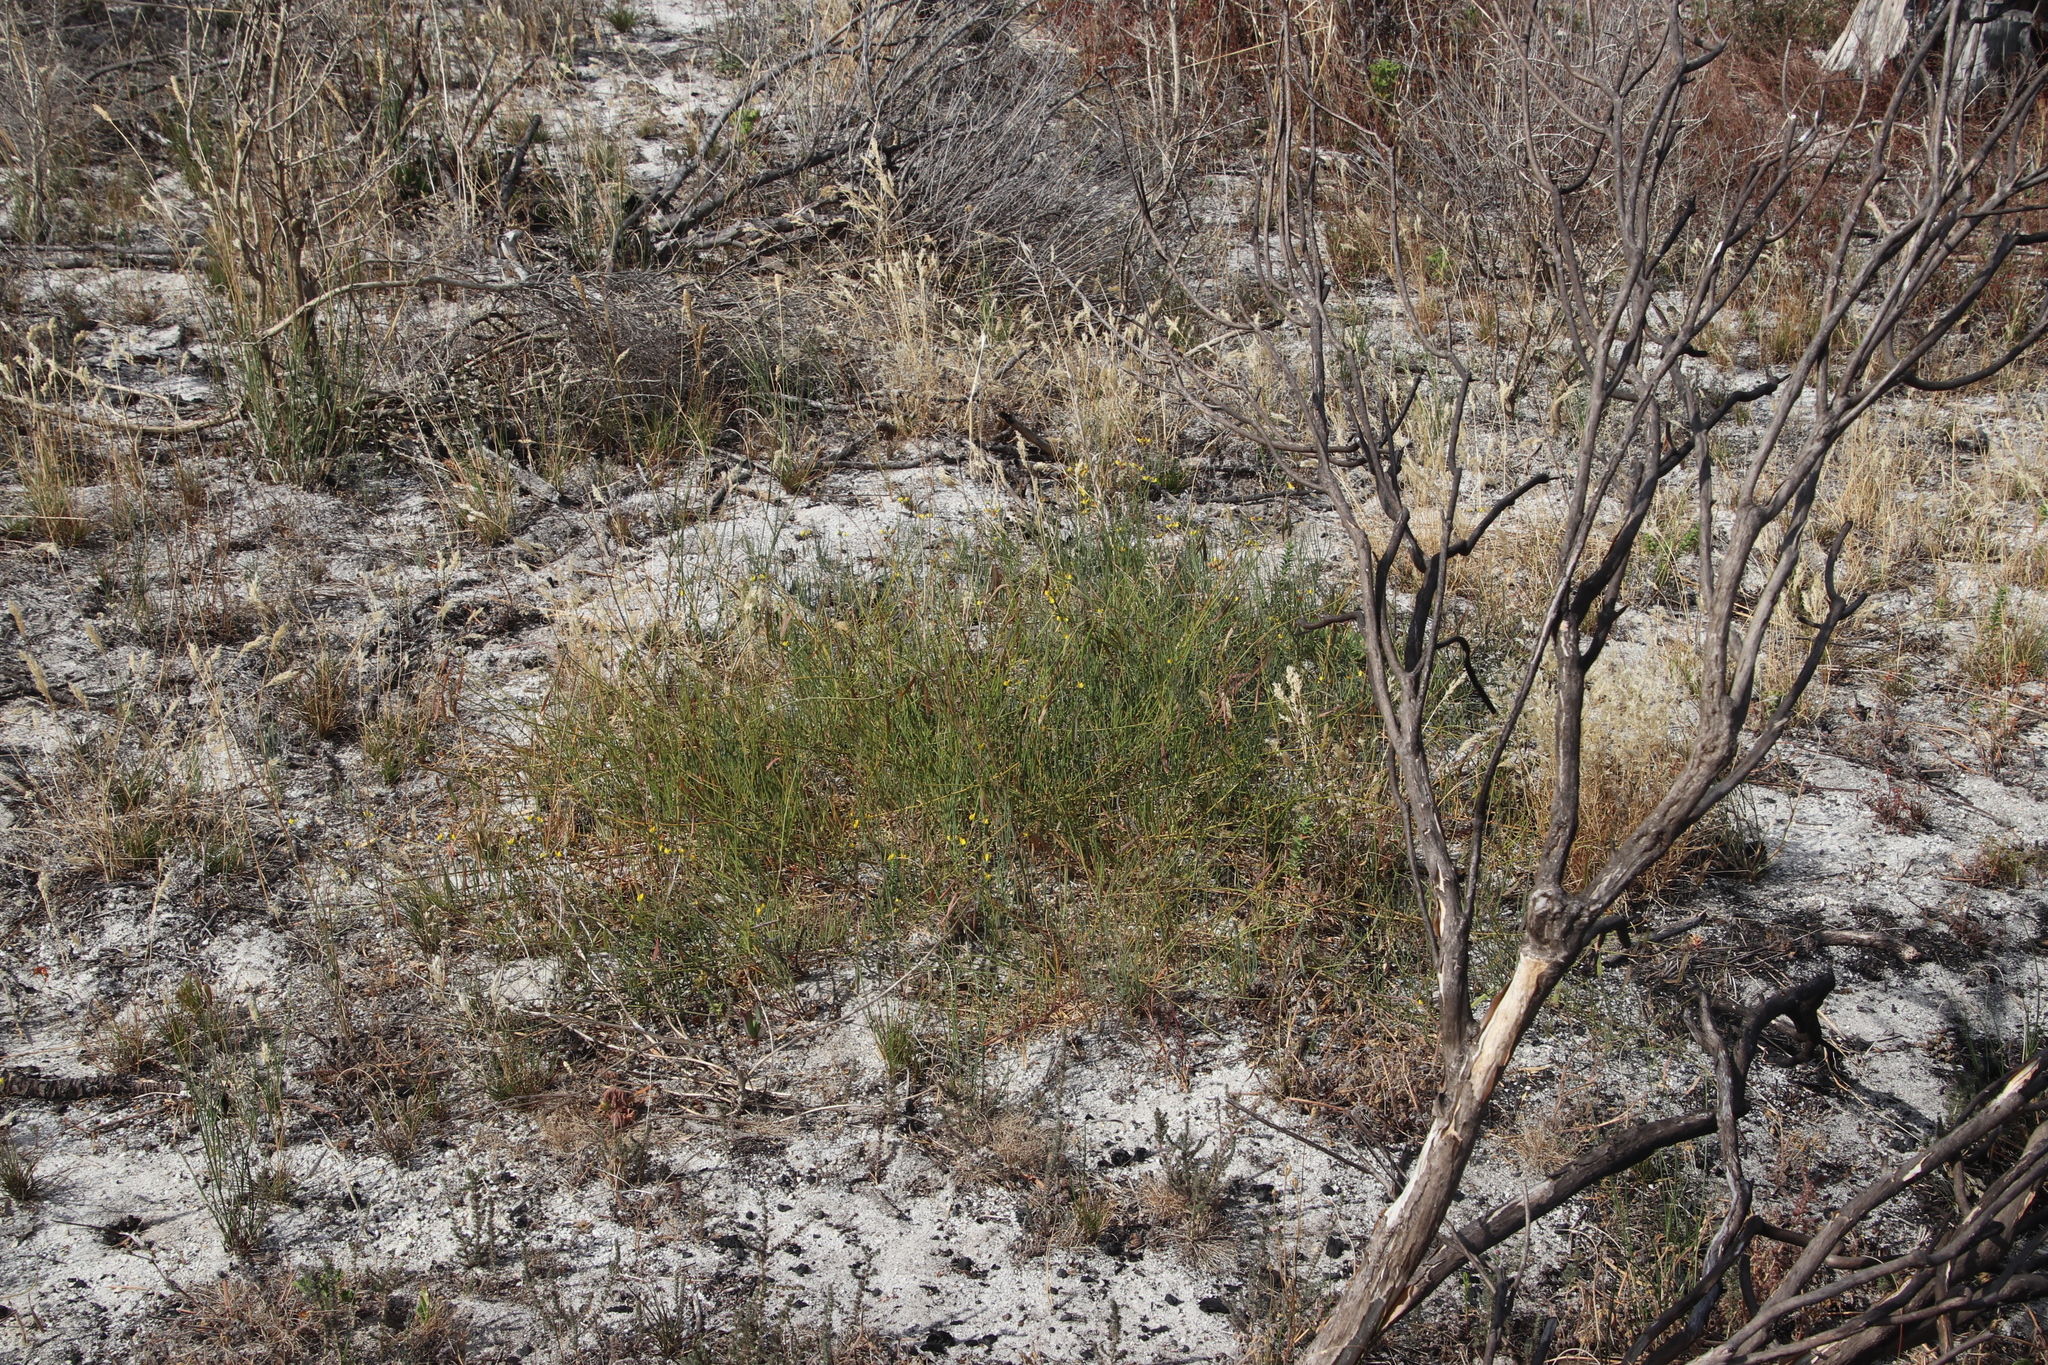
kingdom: Plantae
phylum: Tracheophyta
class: Magnoliopsida
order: Fabales
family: Fabaceae
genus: Lebeckia
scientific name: Lebeckia contaminata
